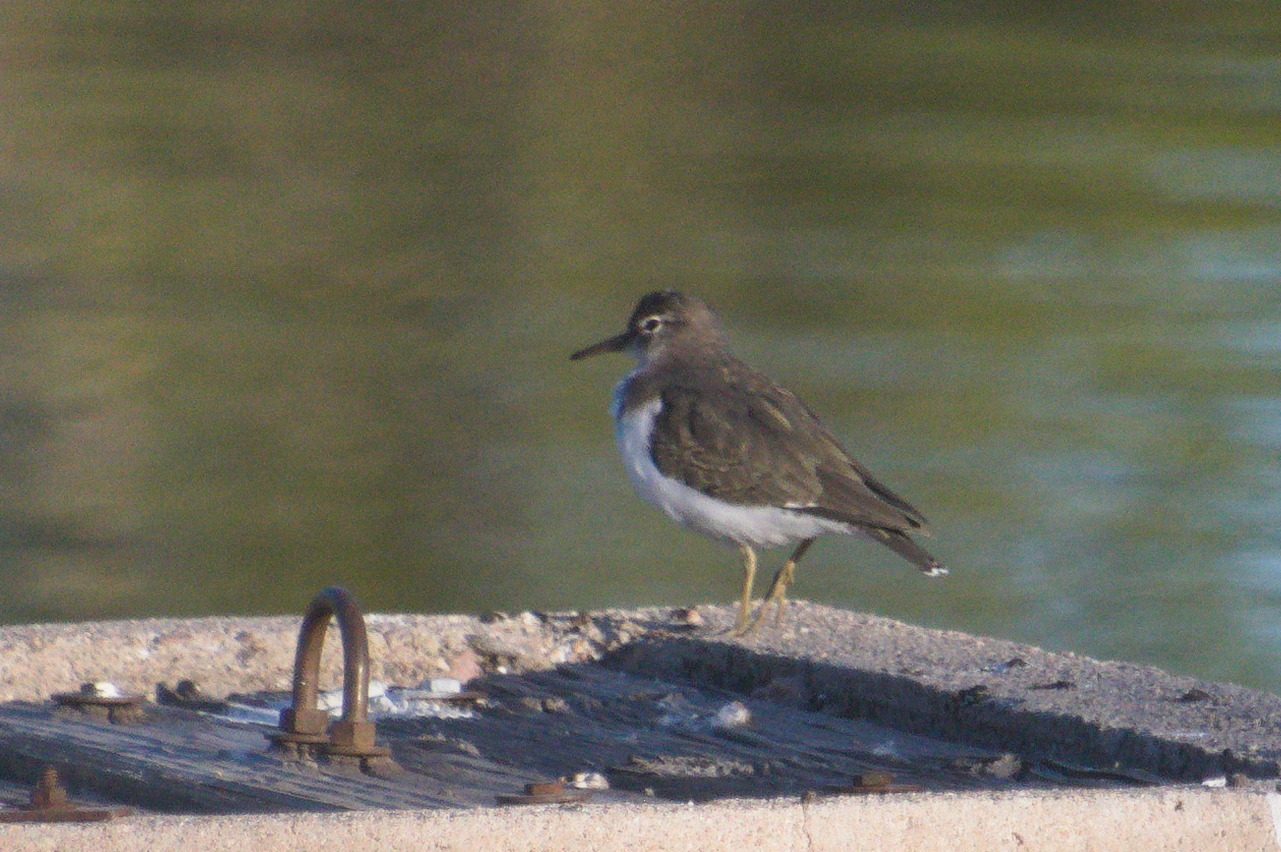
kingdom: Animalia
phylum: Chordata
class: Aves
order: Charadriiformes
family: Scolopacidae
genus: Actitis
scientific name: Actitis macularius
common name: Spotted sandpiper
